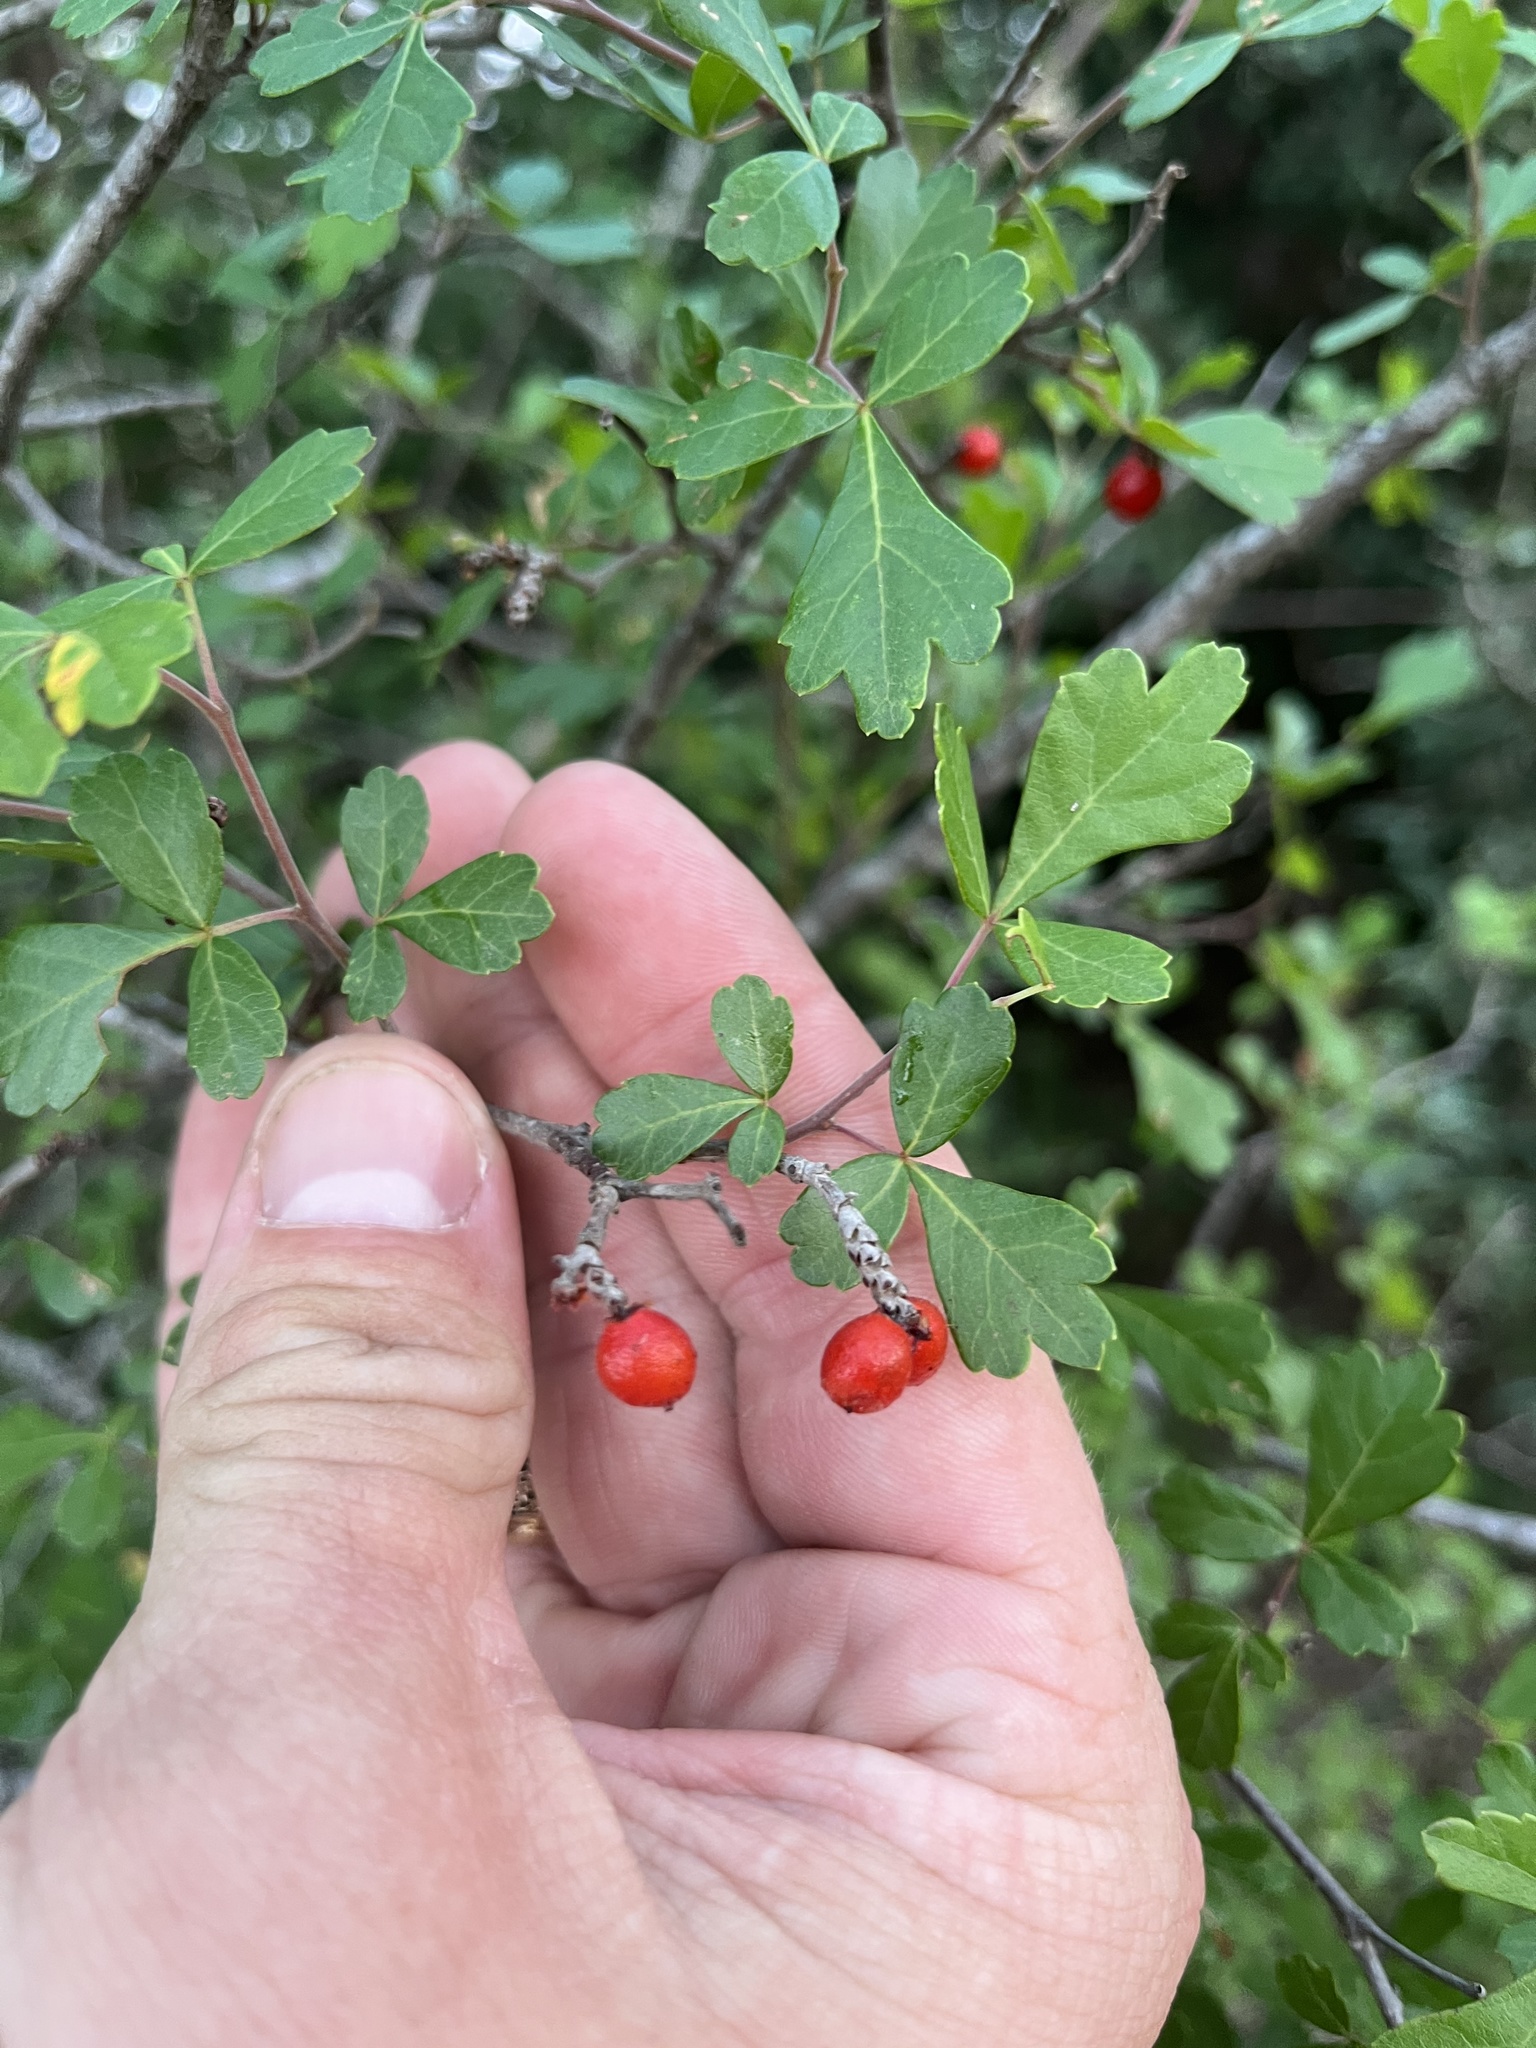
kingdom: Plantae
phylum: Tracheophyta
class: Magnoliopsida
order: Sapindales
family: Anacardiaceae
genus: Rhus
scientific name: Rhus aromatica
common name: Aromatic sumac
